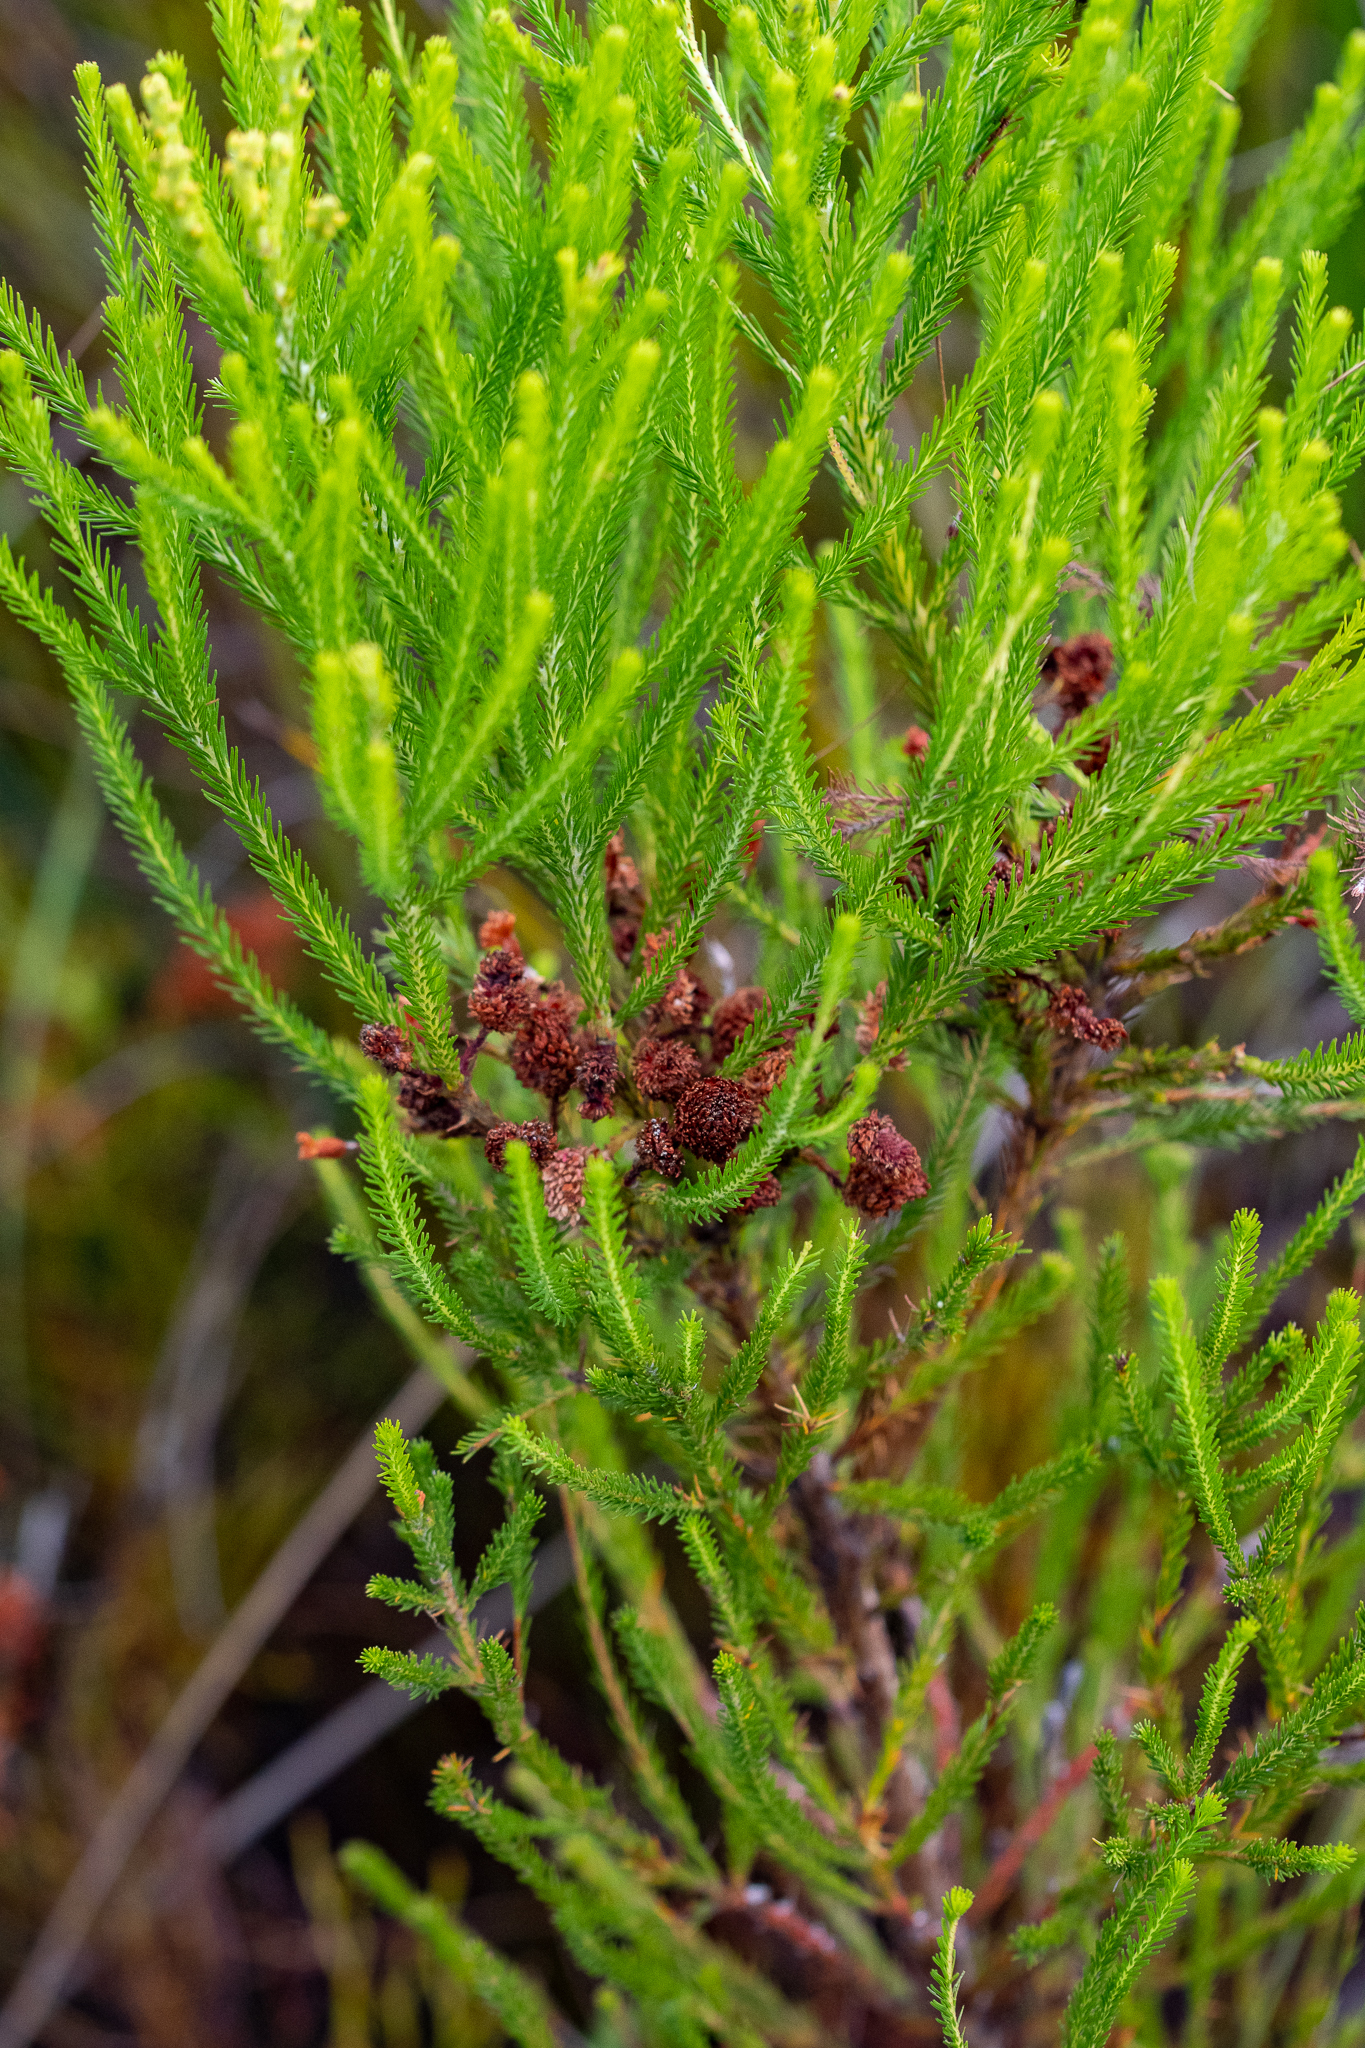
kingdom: Plantae
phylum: Tracheophyta
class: Magnoliopsida
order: Bruniales
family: Bruniaceae
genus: Berzelia
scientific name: Berzelia lanuginosa
